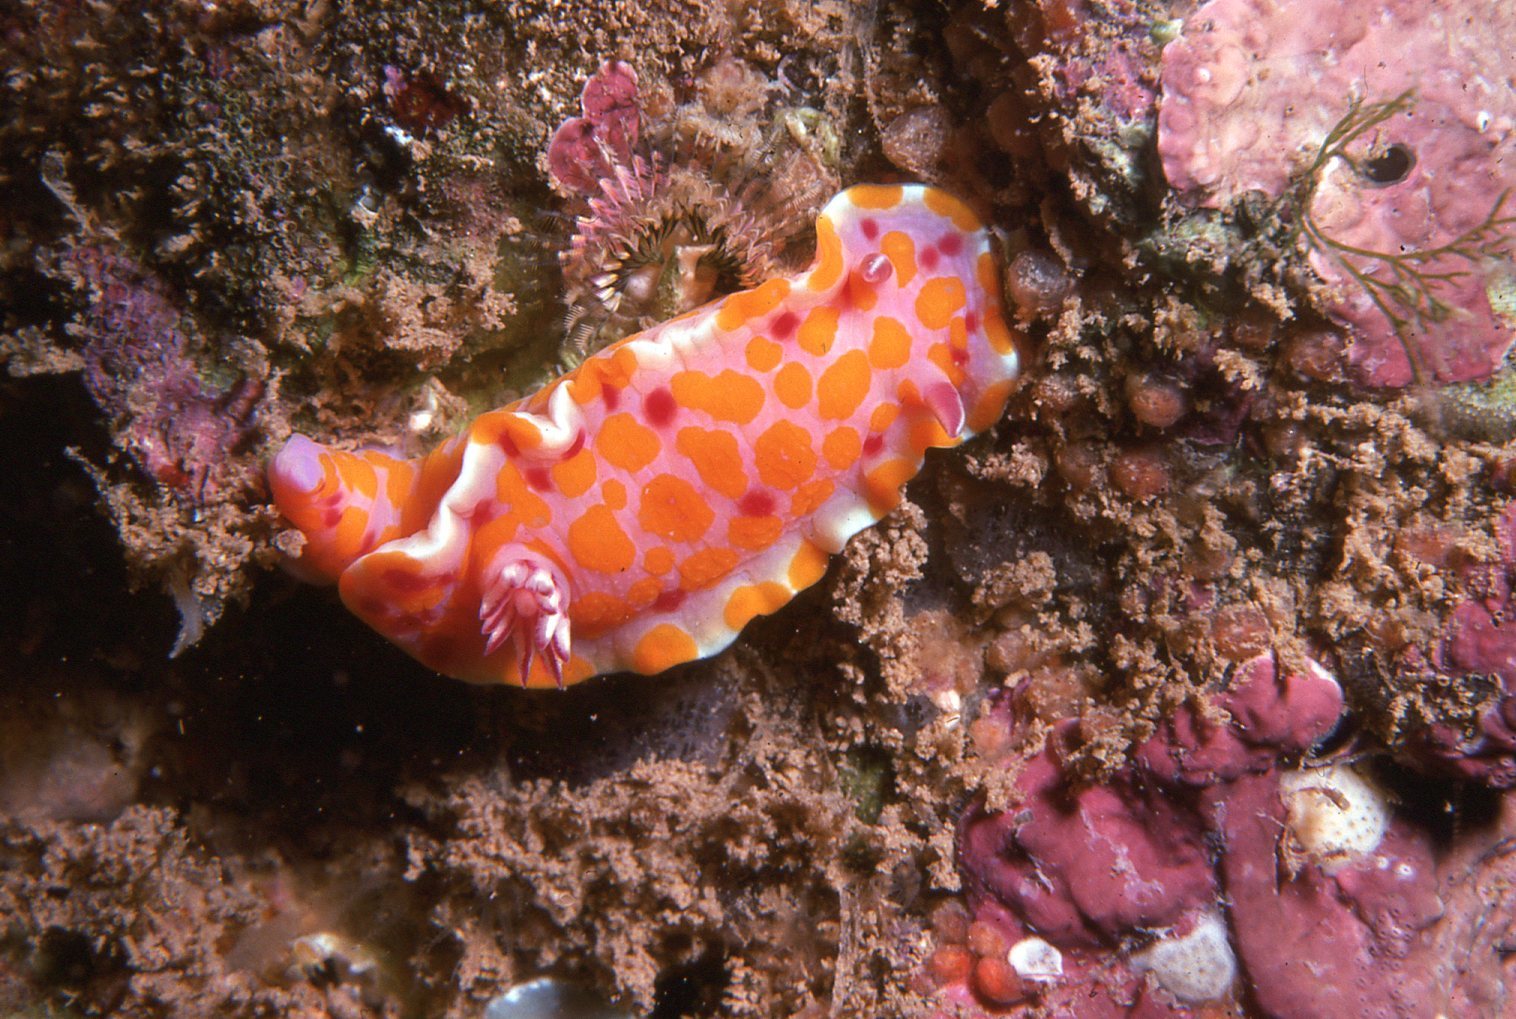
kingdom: Animalia
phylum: Mollusca
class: Gastropoda
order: Nudibranchia
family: Chromodorididae
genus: Ceratosoma
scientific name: Ceratosoma amoenum
